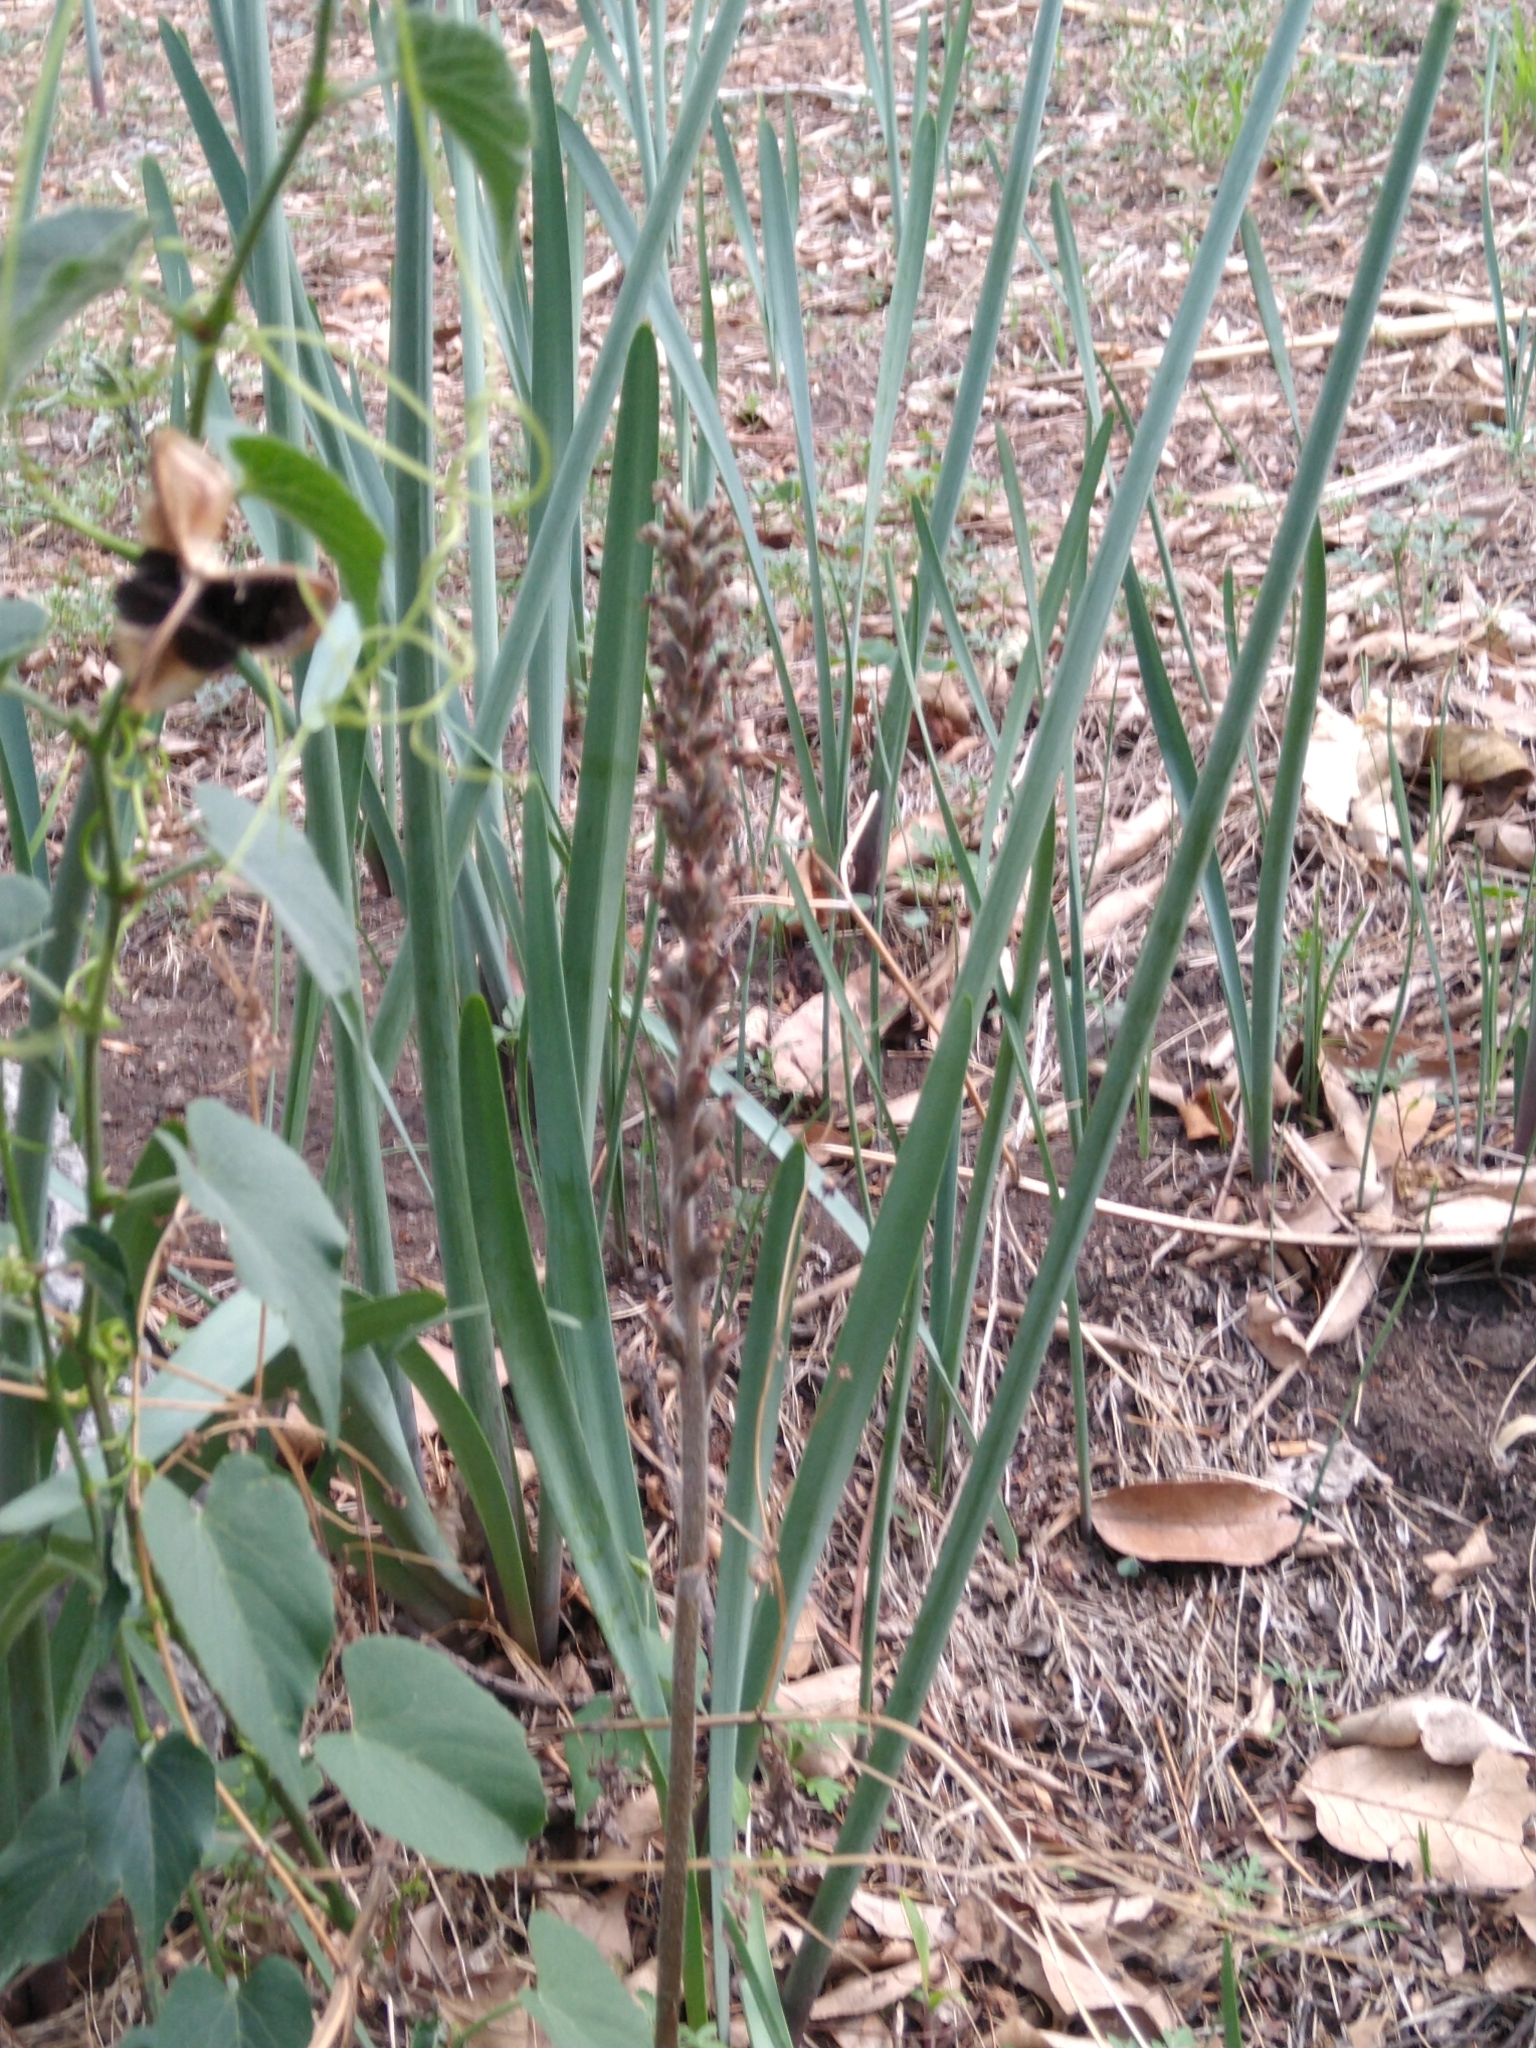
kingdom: Plantae
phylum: Tracheophyta
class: Liliopsida
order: Asparagales
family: Orchidaceae
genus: Sarcoglottis
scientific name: Sarcoglottis schaffneri
